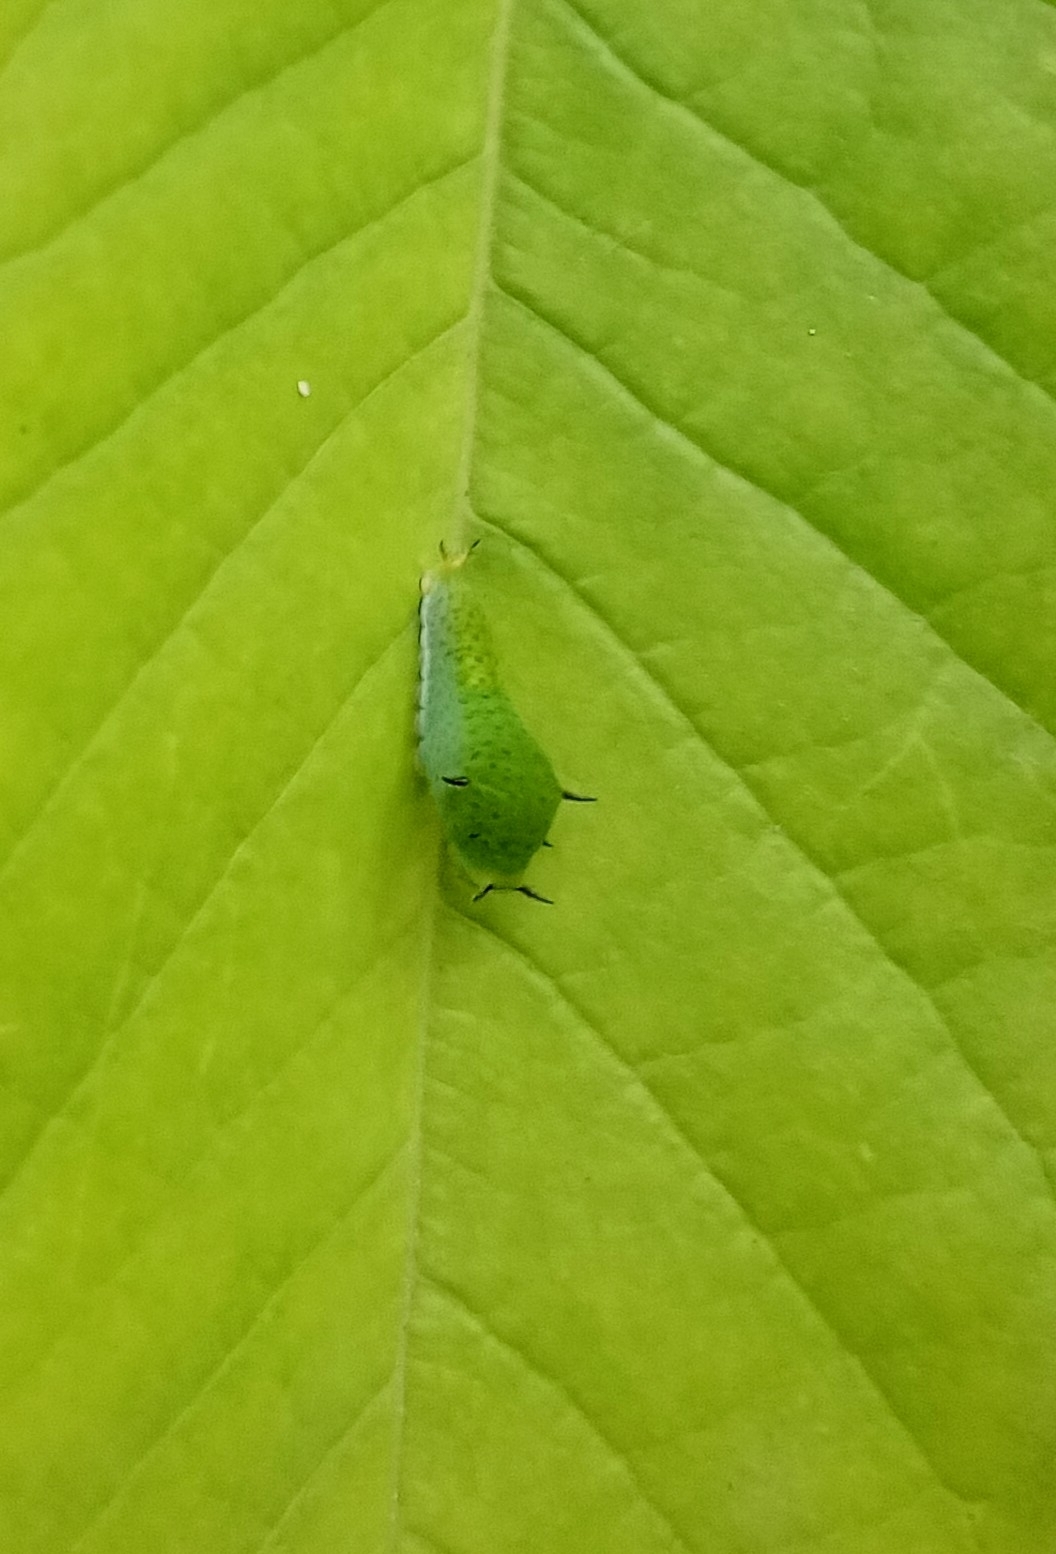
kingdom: Animalia
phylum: Arthropoda
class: Insecta
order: Lepidoptera
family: Papilionidae
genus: Graphium
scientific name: Graphium agamemnon
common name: Tailed jay
